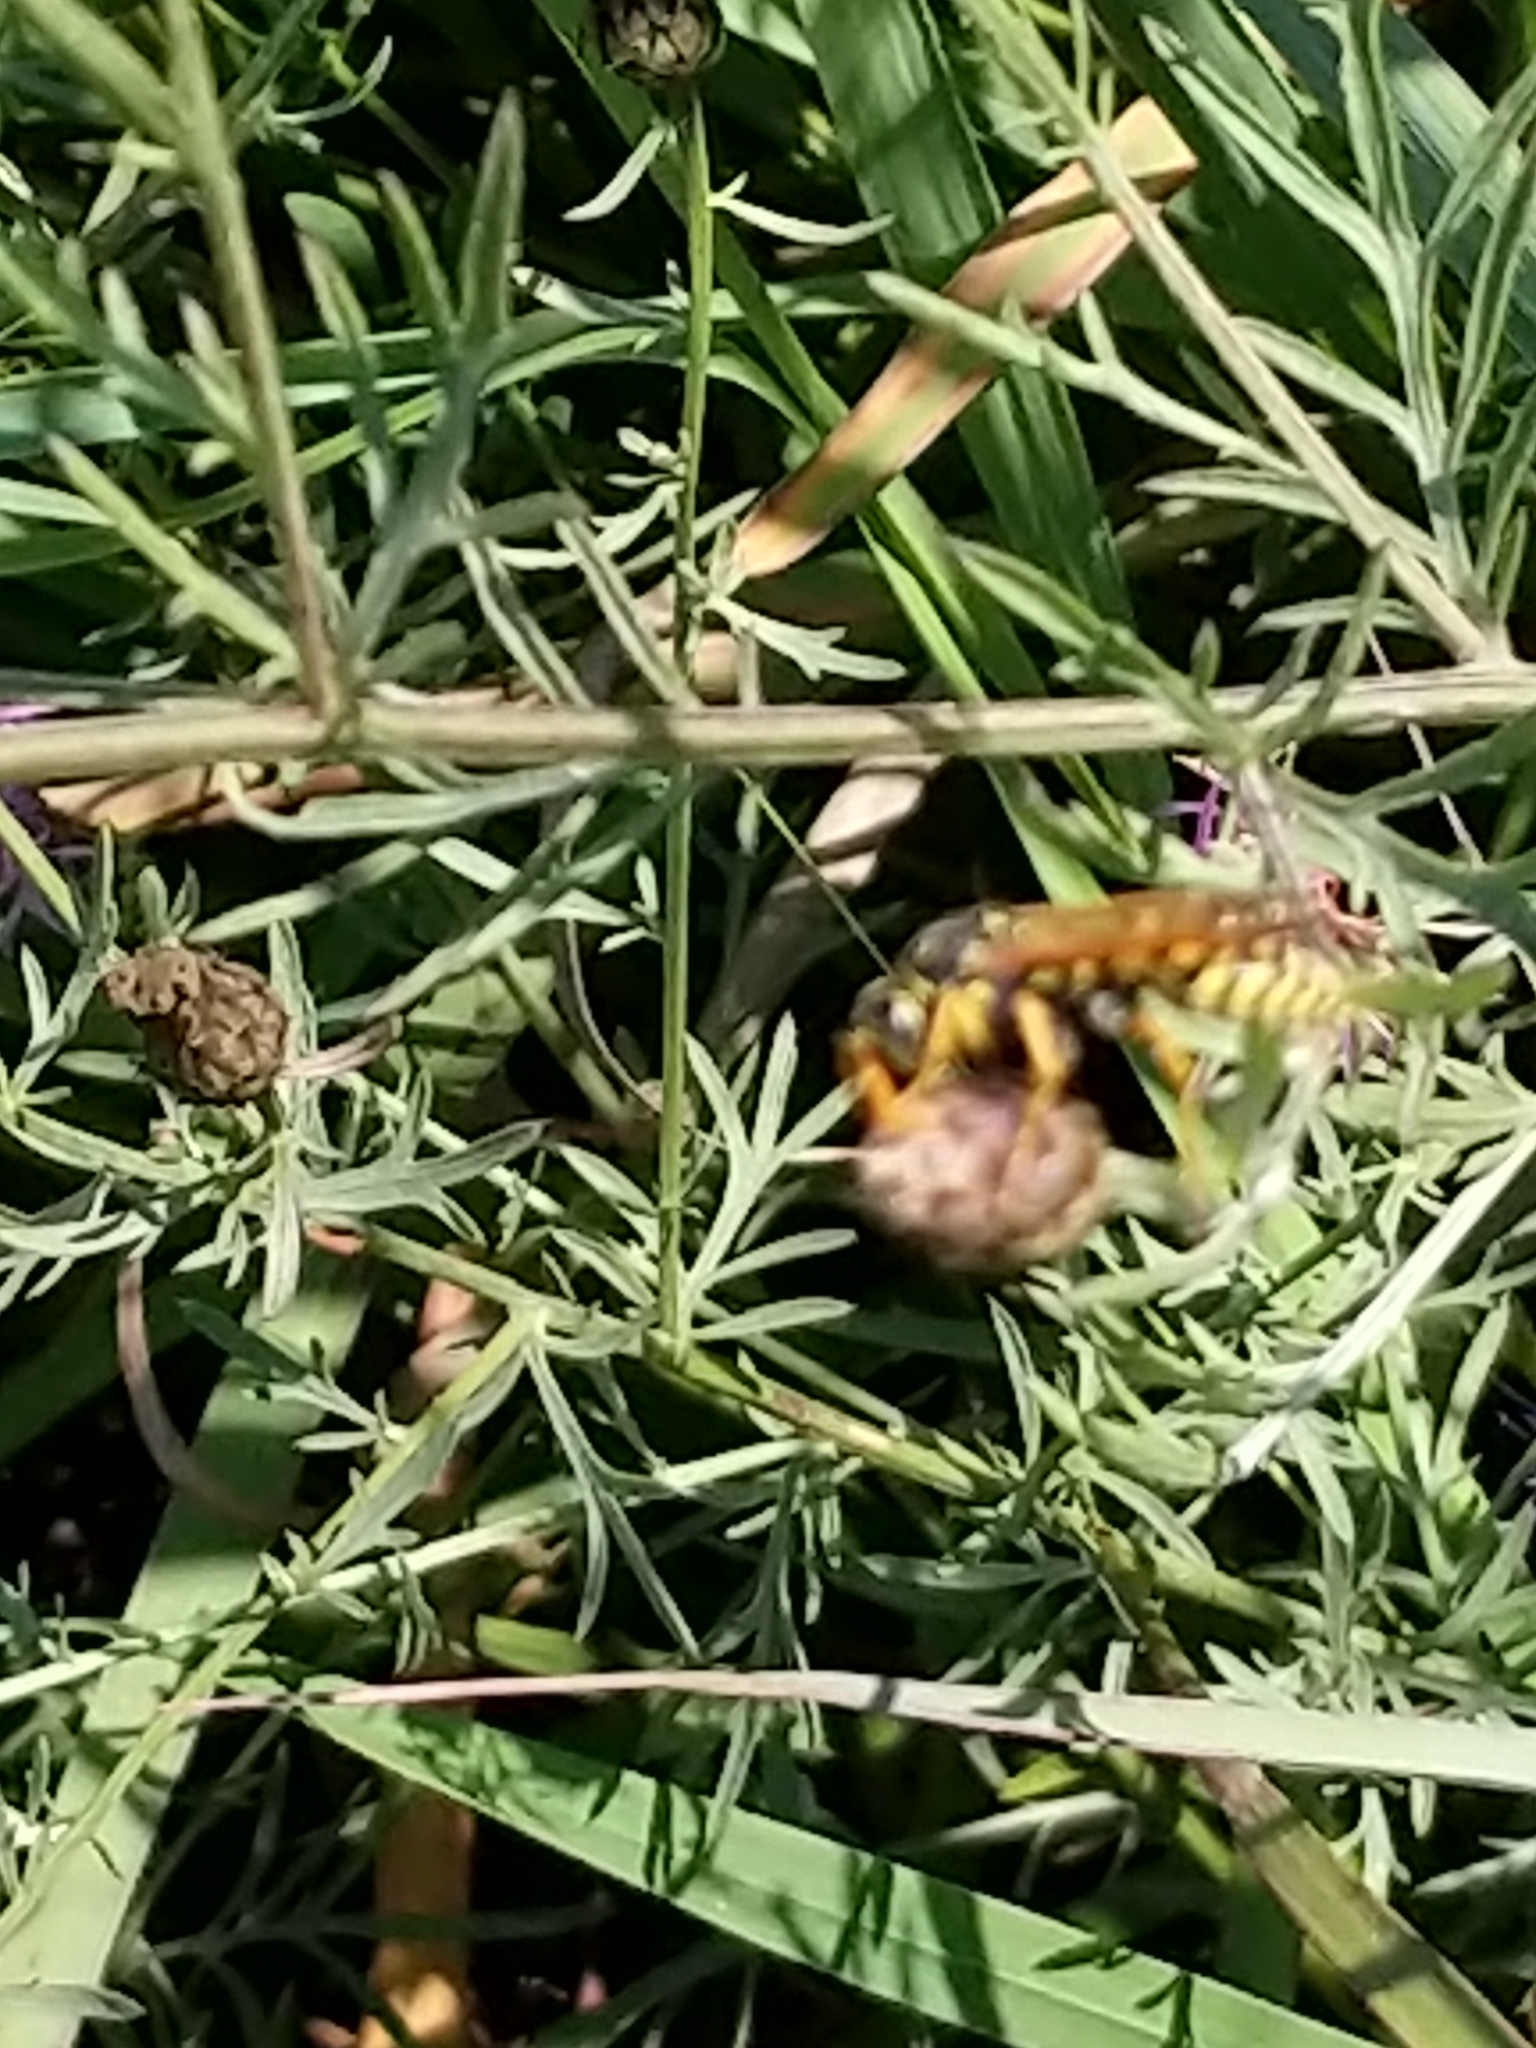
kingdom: Animalia
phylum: Arthropoda
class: Insecta
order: Hymenoptera
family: Eumenidae
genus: Polistes
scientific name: Polistes dominula
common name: Paper wasp
